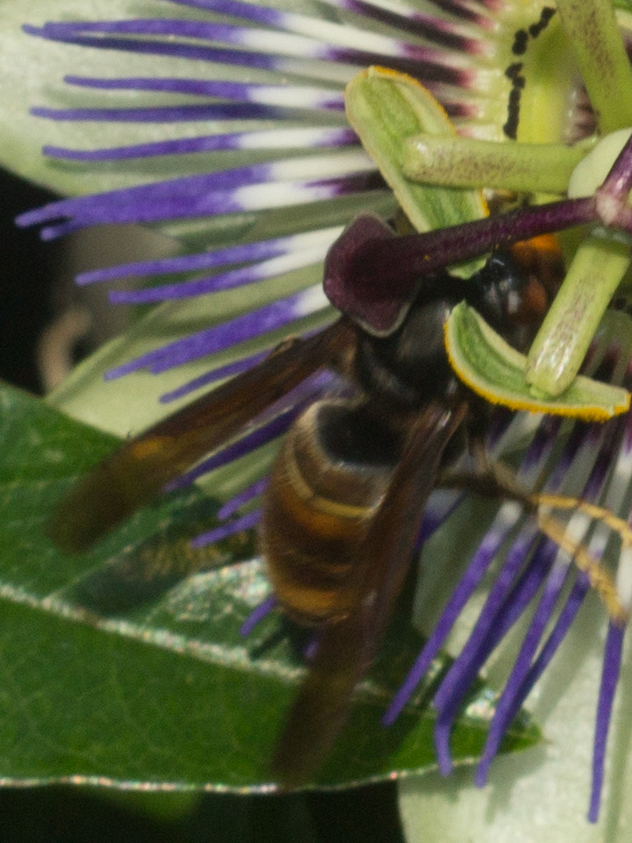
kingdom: Animalia
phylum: Arthropoda
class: Insecta
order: Hymenoptera
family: Vespidae
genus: Vespa
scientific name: Vespa velutina
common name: Asian hornet
